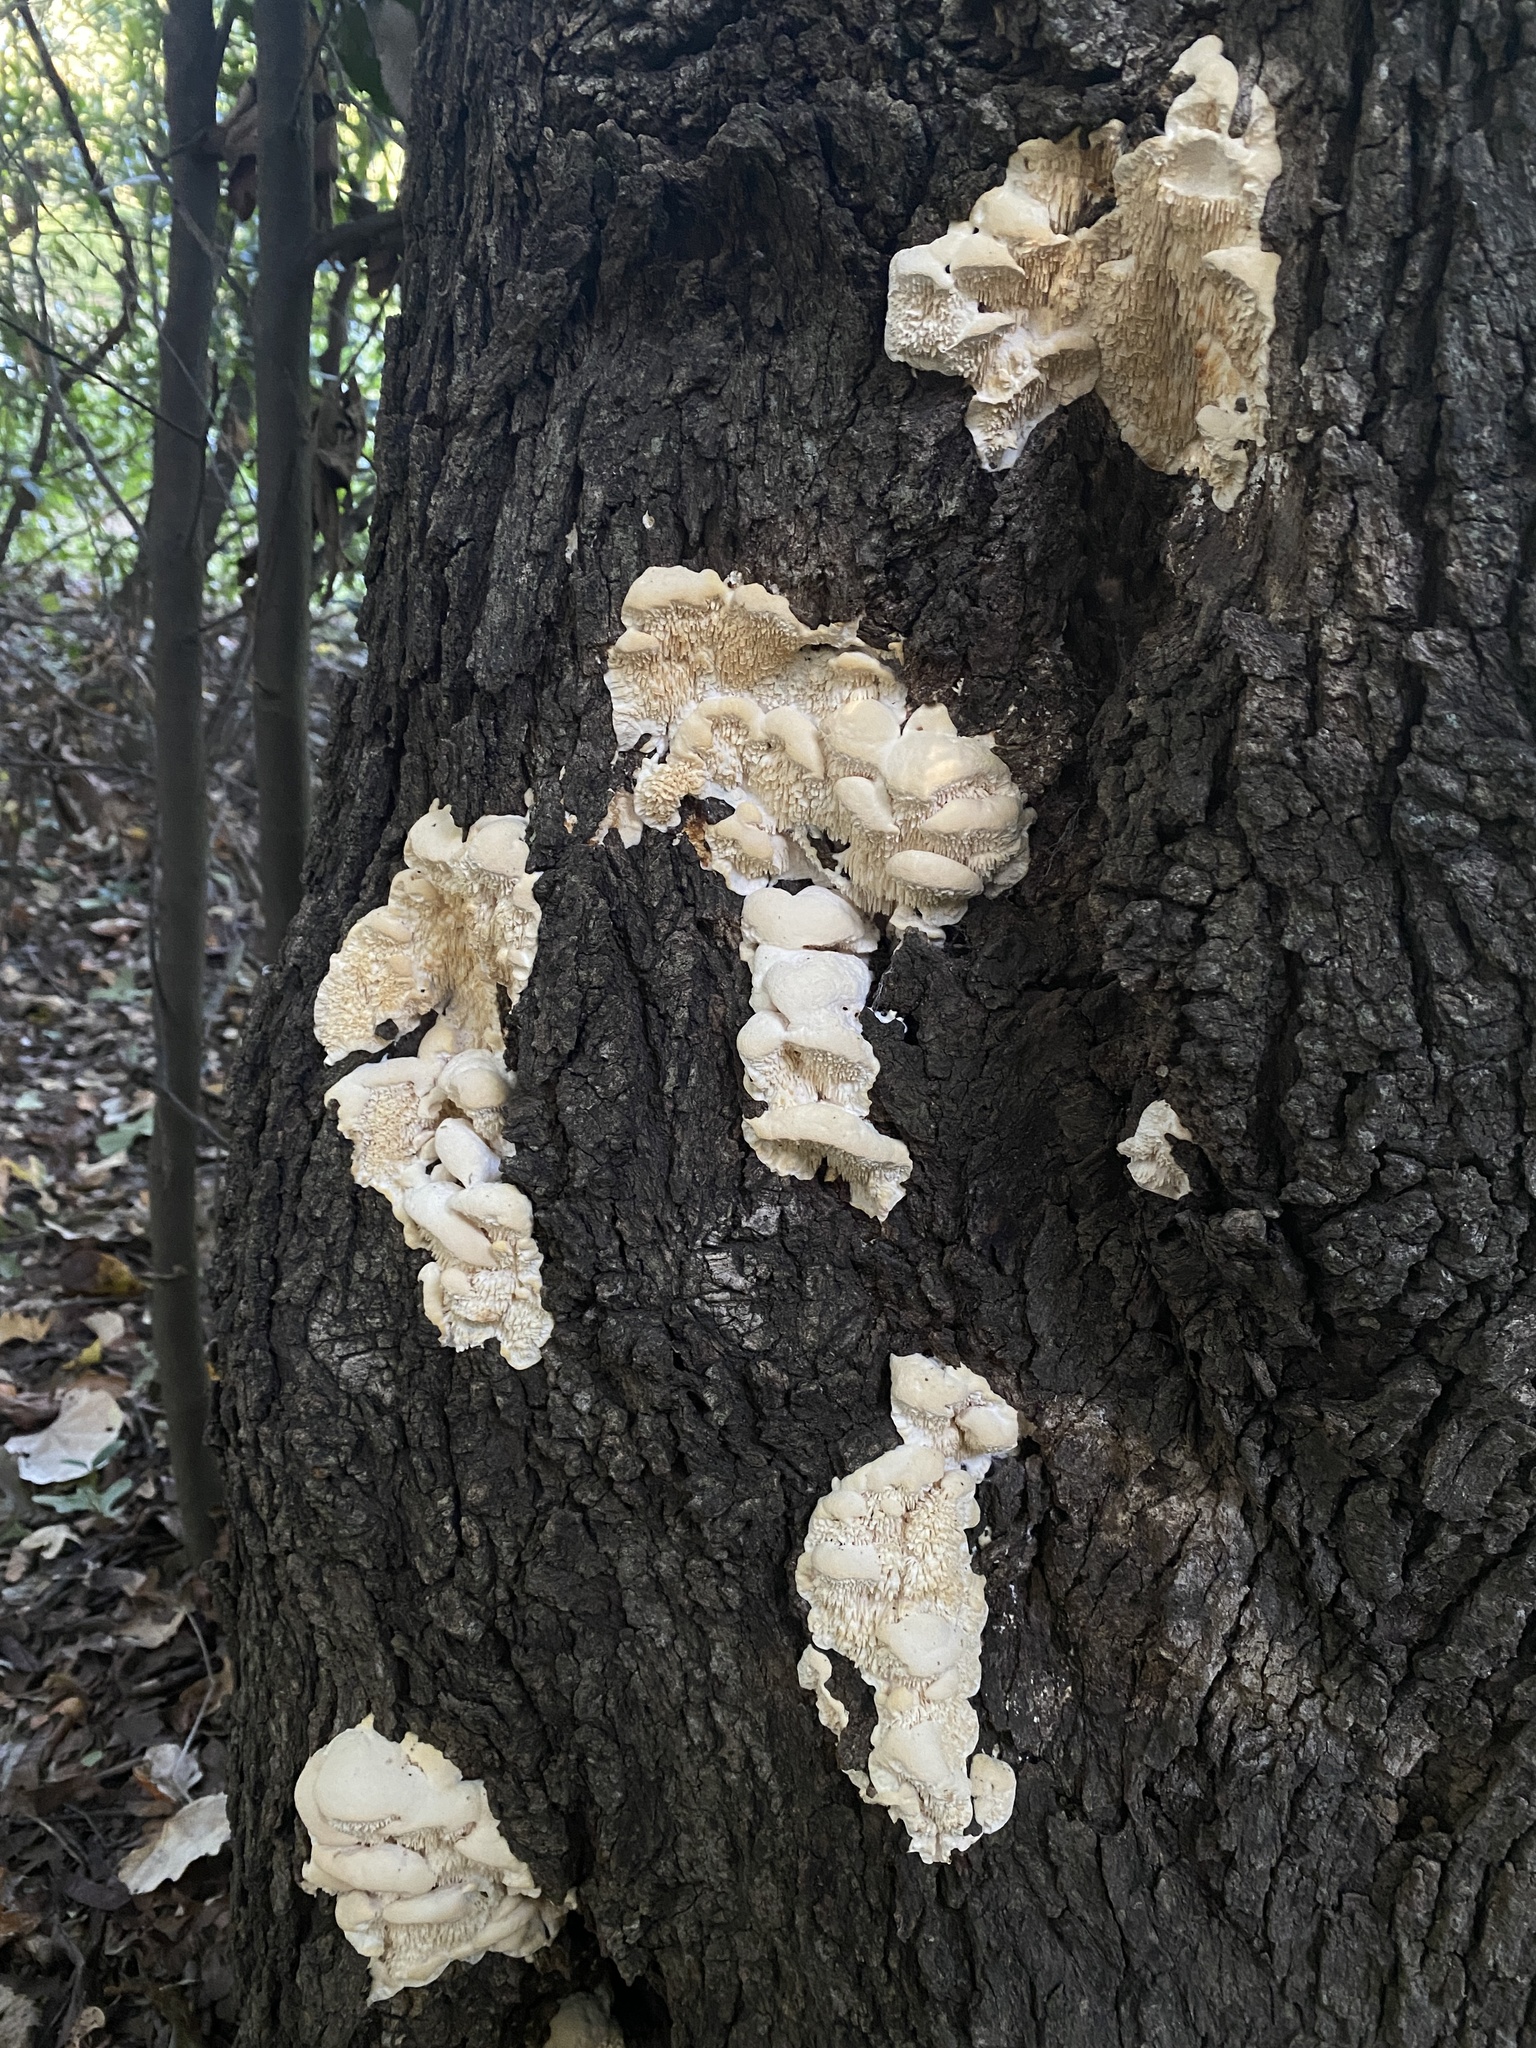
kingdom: Fungi
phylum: Basidiomycota
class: Agaricomycetes
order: Polyporales
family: Meruliaceae
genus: Irpiciporus
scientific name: Irpiciporus pachyodon
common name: Marshmallow polypore
